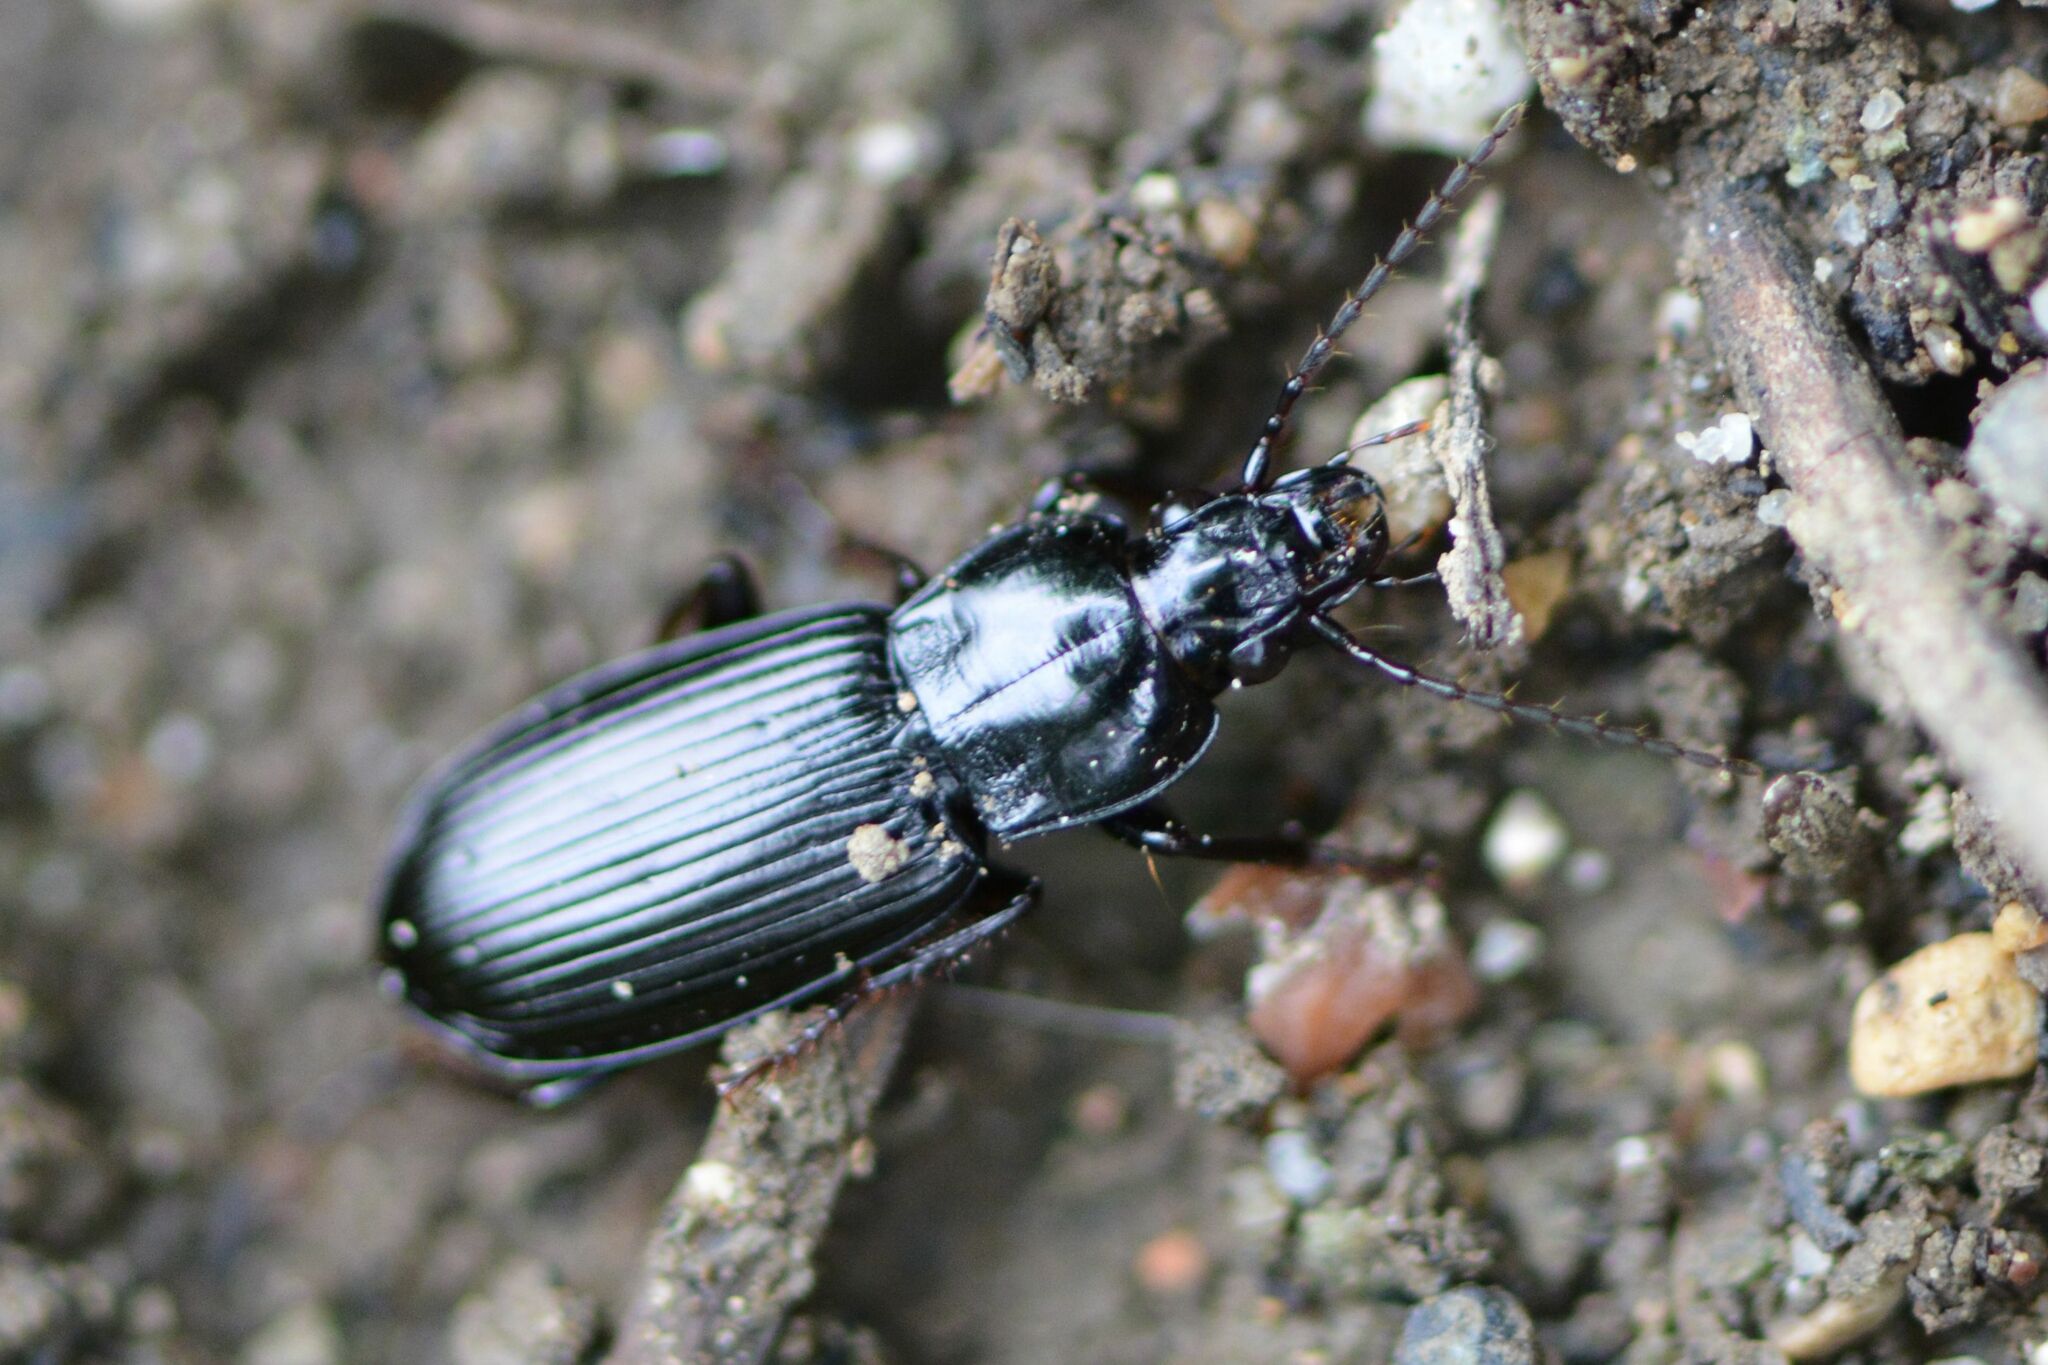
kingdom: Animalia
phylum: Arthropoda
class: Insecta
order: Coleoptera
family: Carabidae
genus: Pterostichus
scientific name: Pterostichus anthracinus
